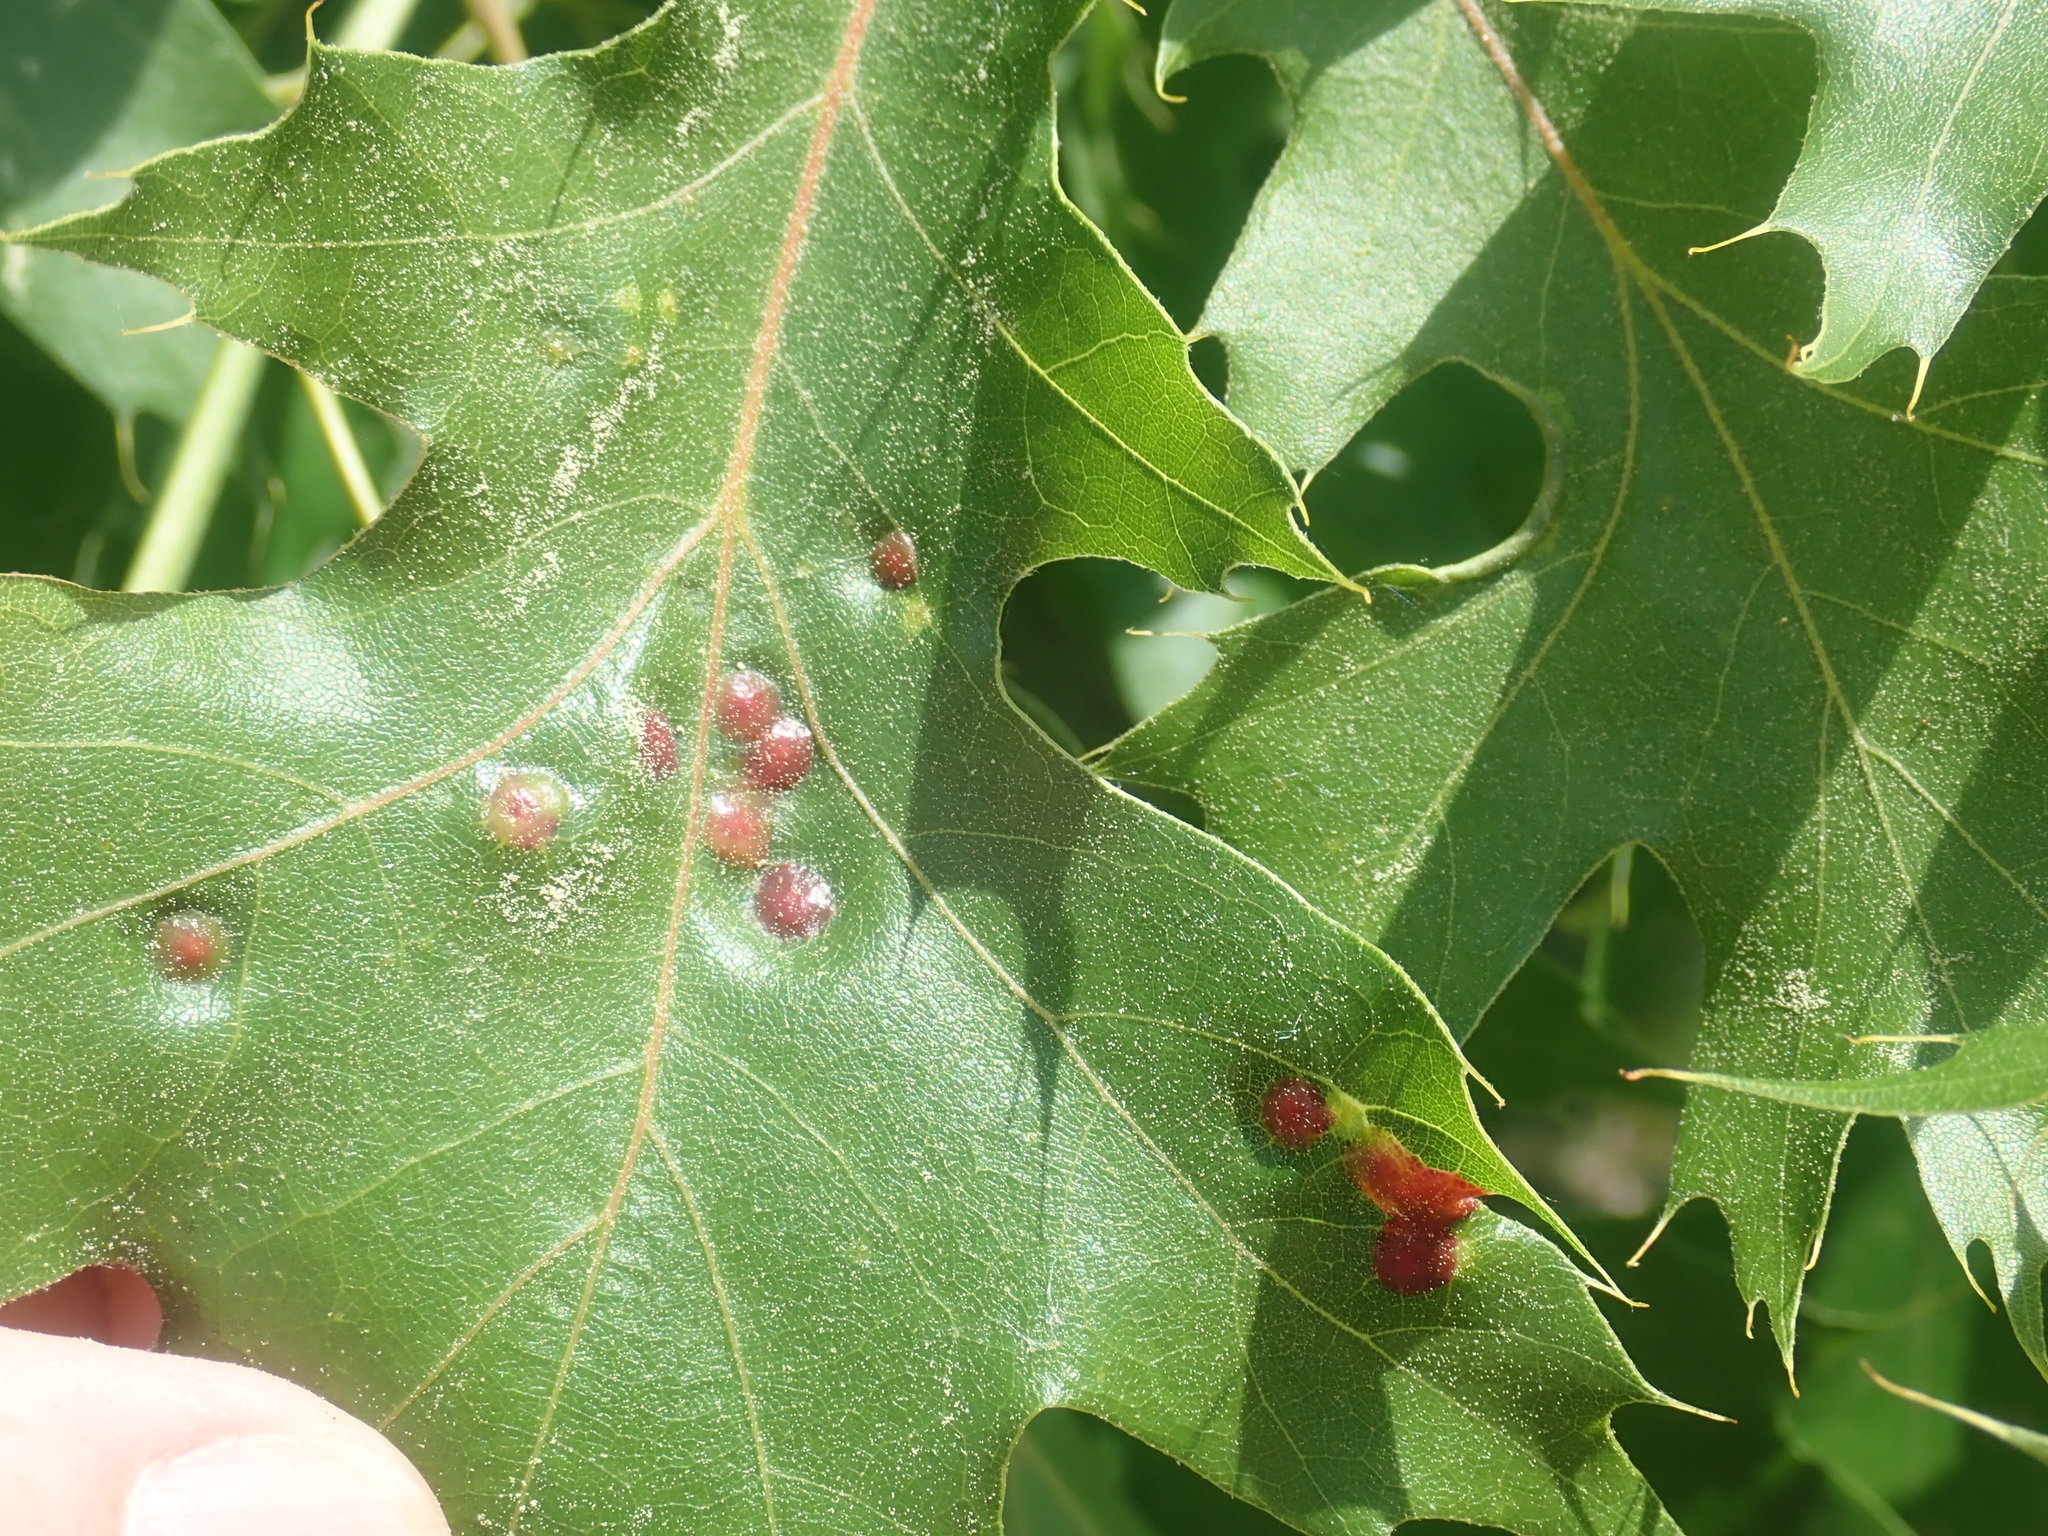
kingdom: Animalia
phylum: Arthropoda
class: Insecta
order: Diptera
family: Cecidomyiidae
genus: Polystepha
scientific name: Polystepha pilulae
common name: Oak leaf gall midge
